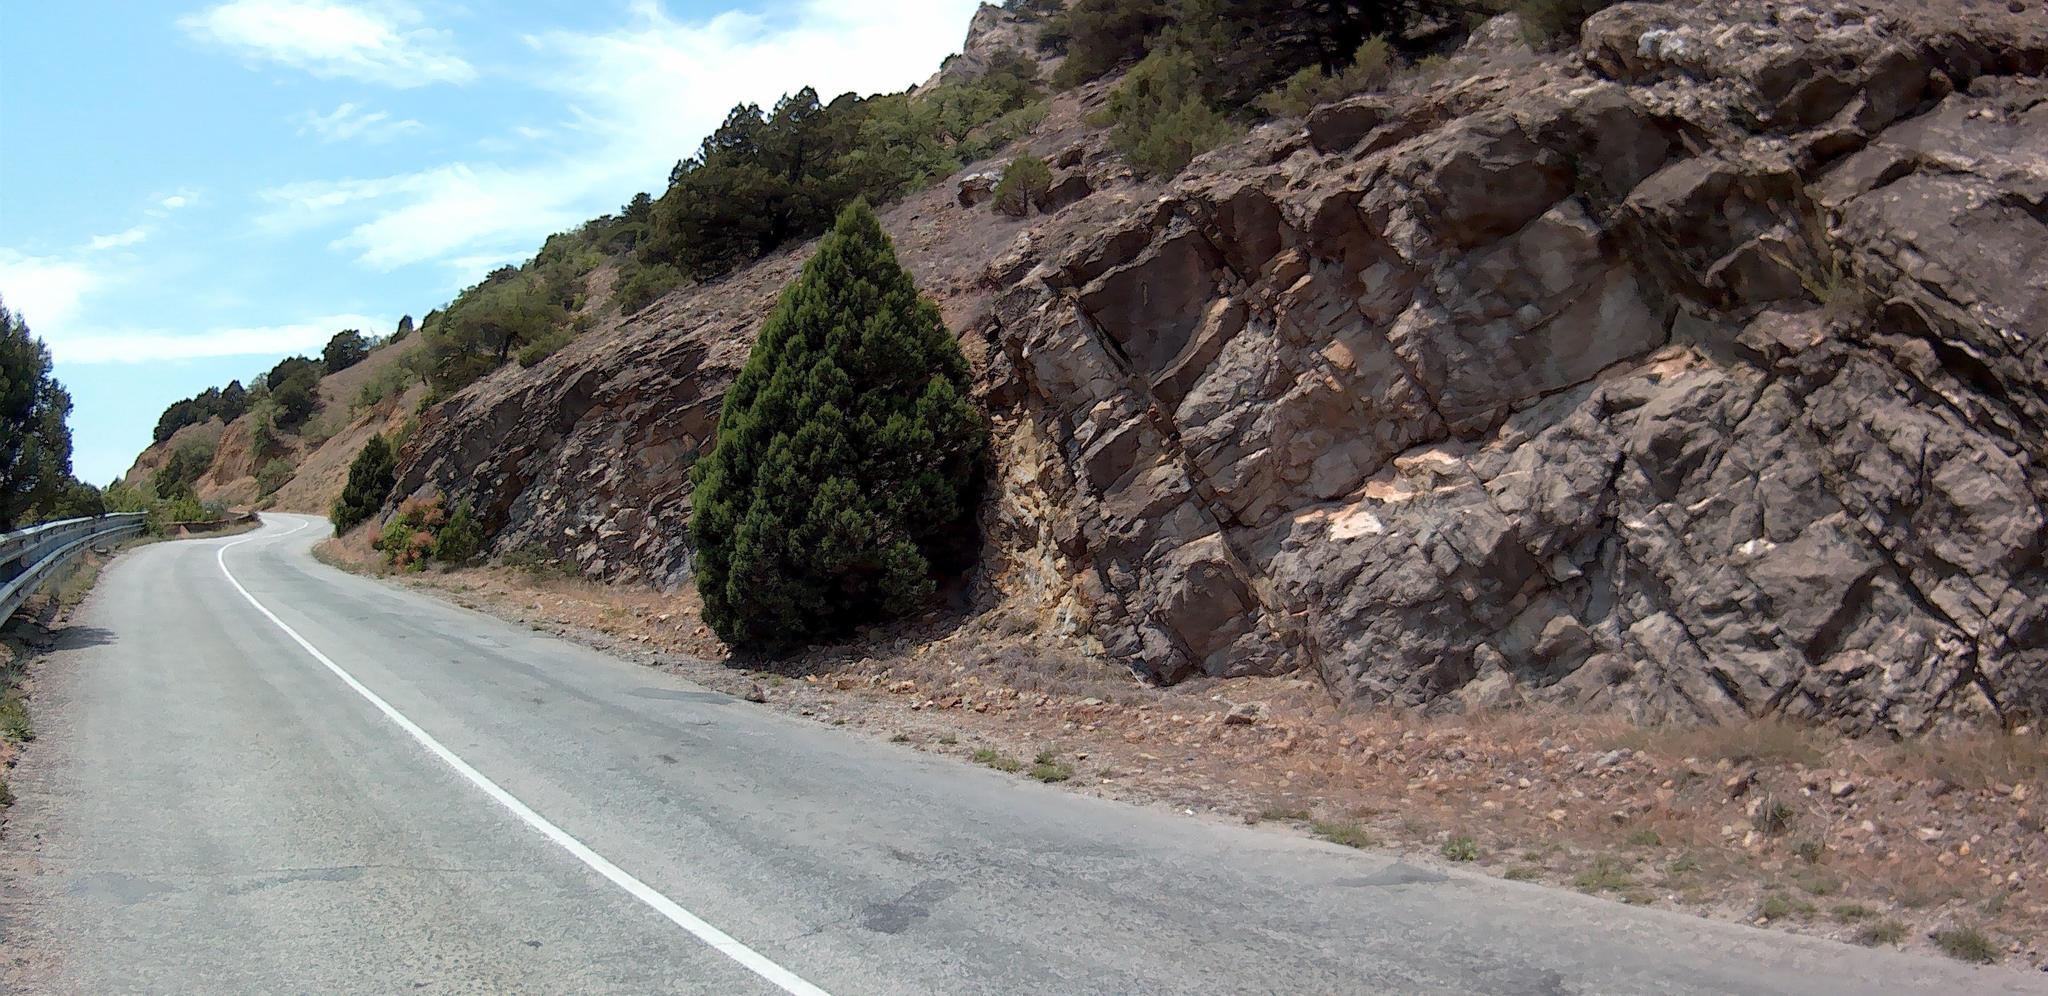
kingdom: Plantae
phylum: Tracheophyta
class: Pinopsida
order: Pinales
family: Cupressaceae
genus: Juniperus
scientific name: Juniperus excelsa
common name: Crimean juniper
